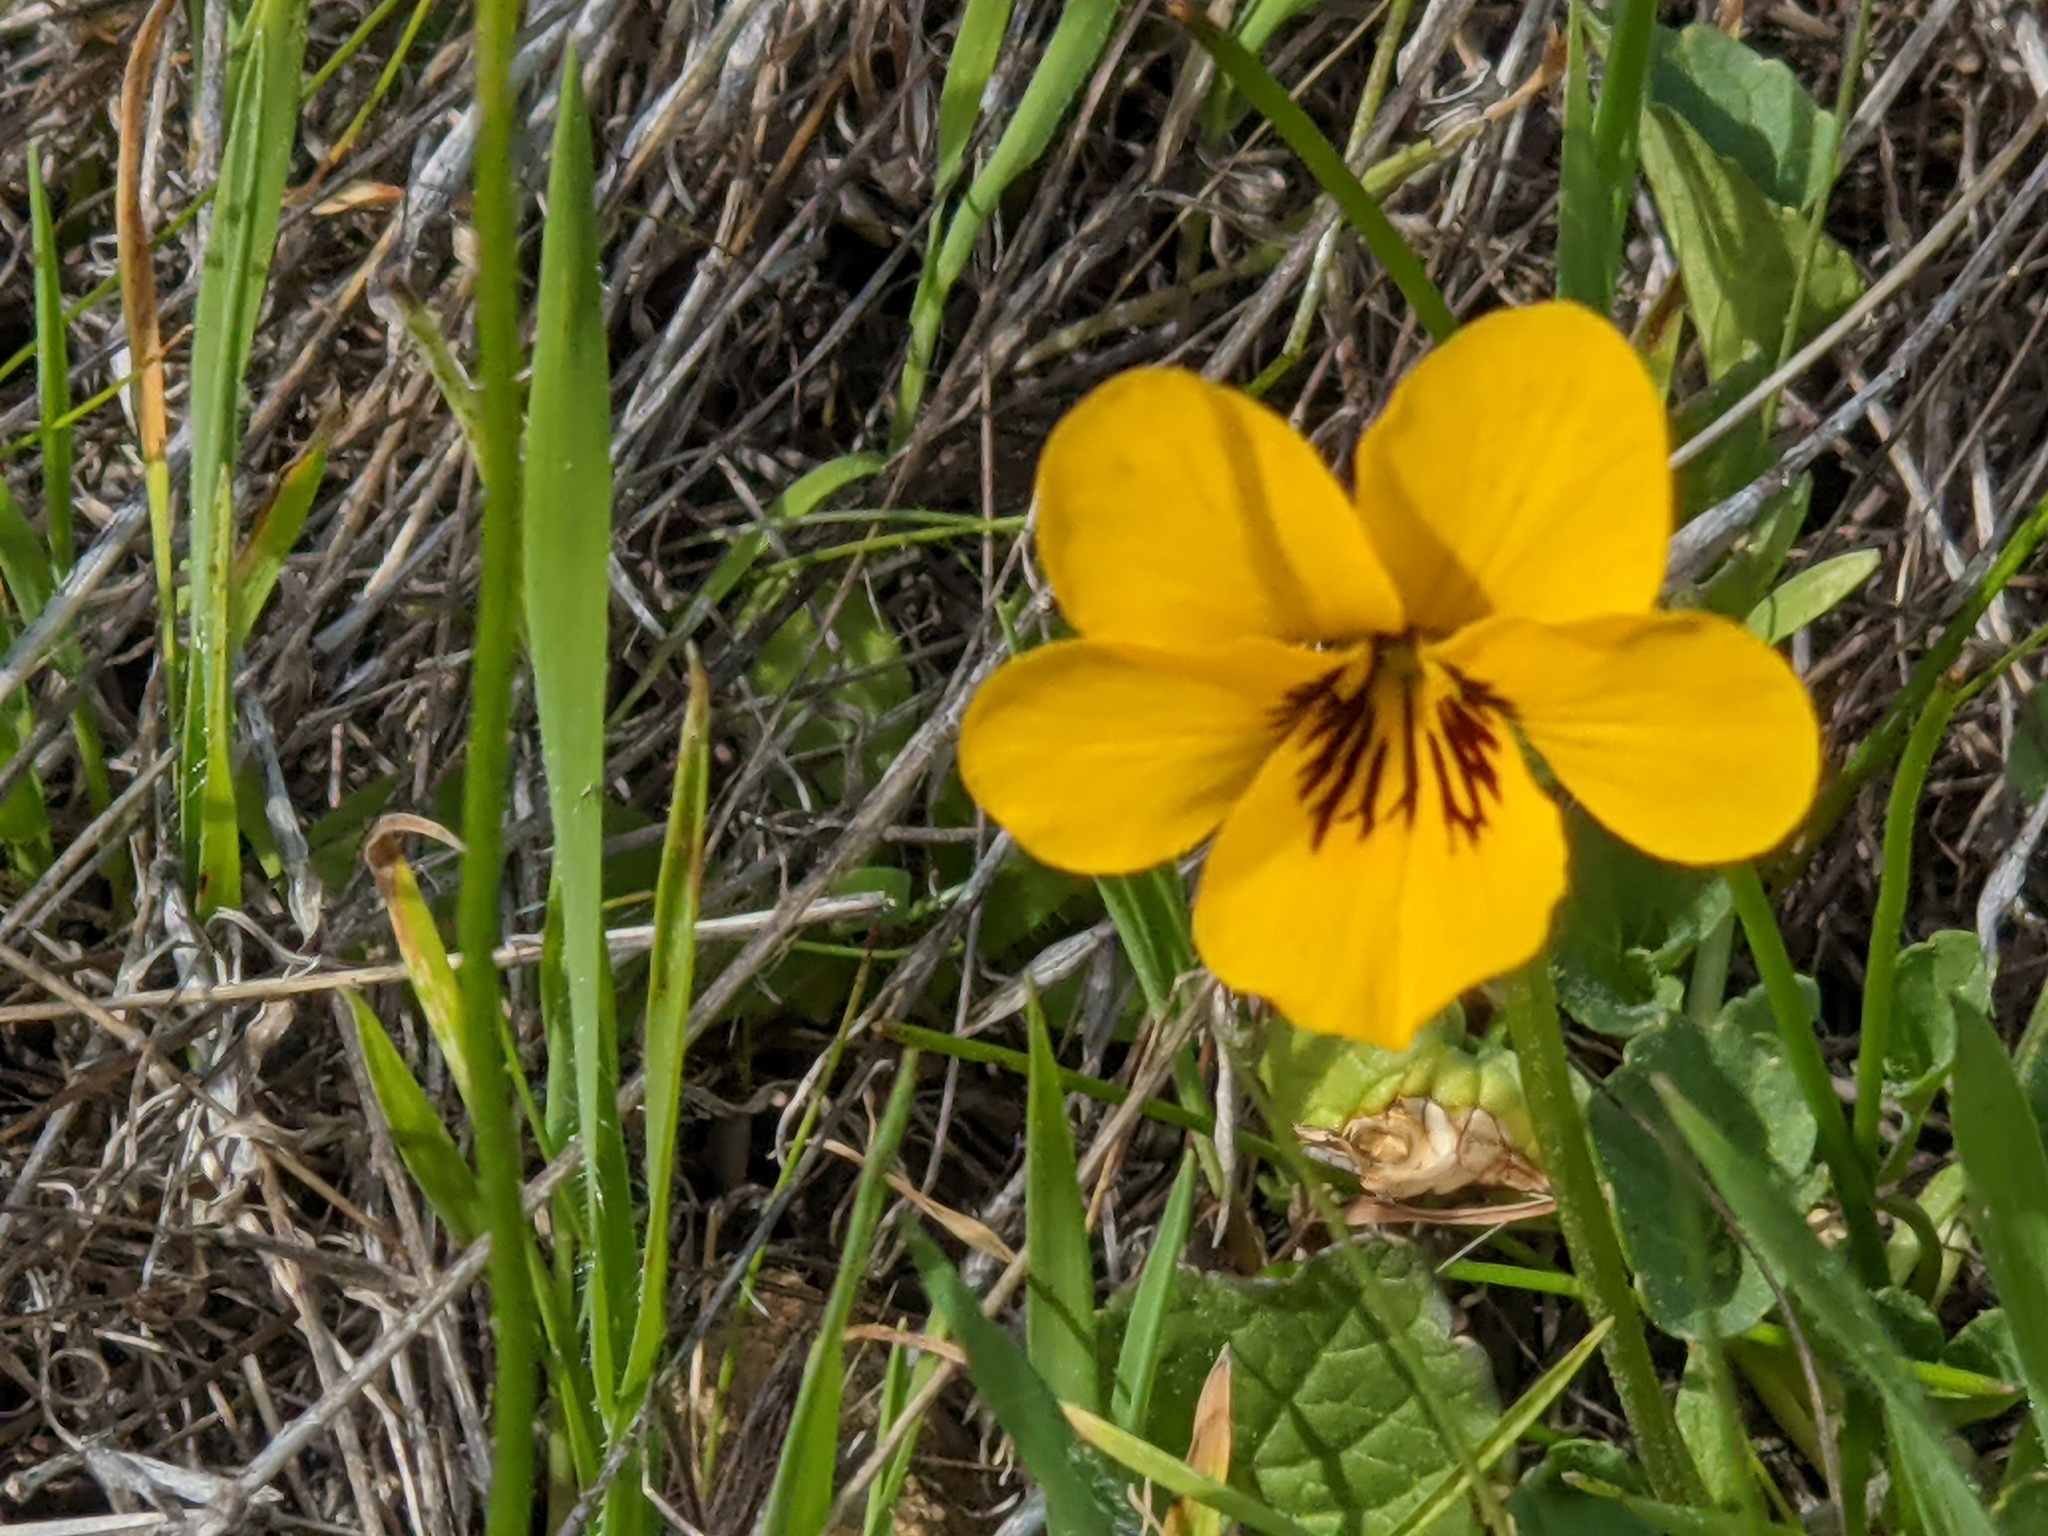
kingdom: Plantae
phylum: Tracheophyta
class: Magnoliopsida
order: Malpighiales
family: Violaceae
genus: Viola
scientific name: Viola pedunculata
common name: California golden violet
